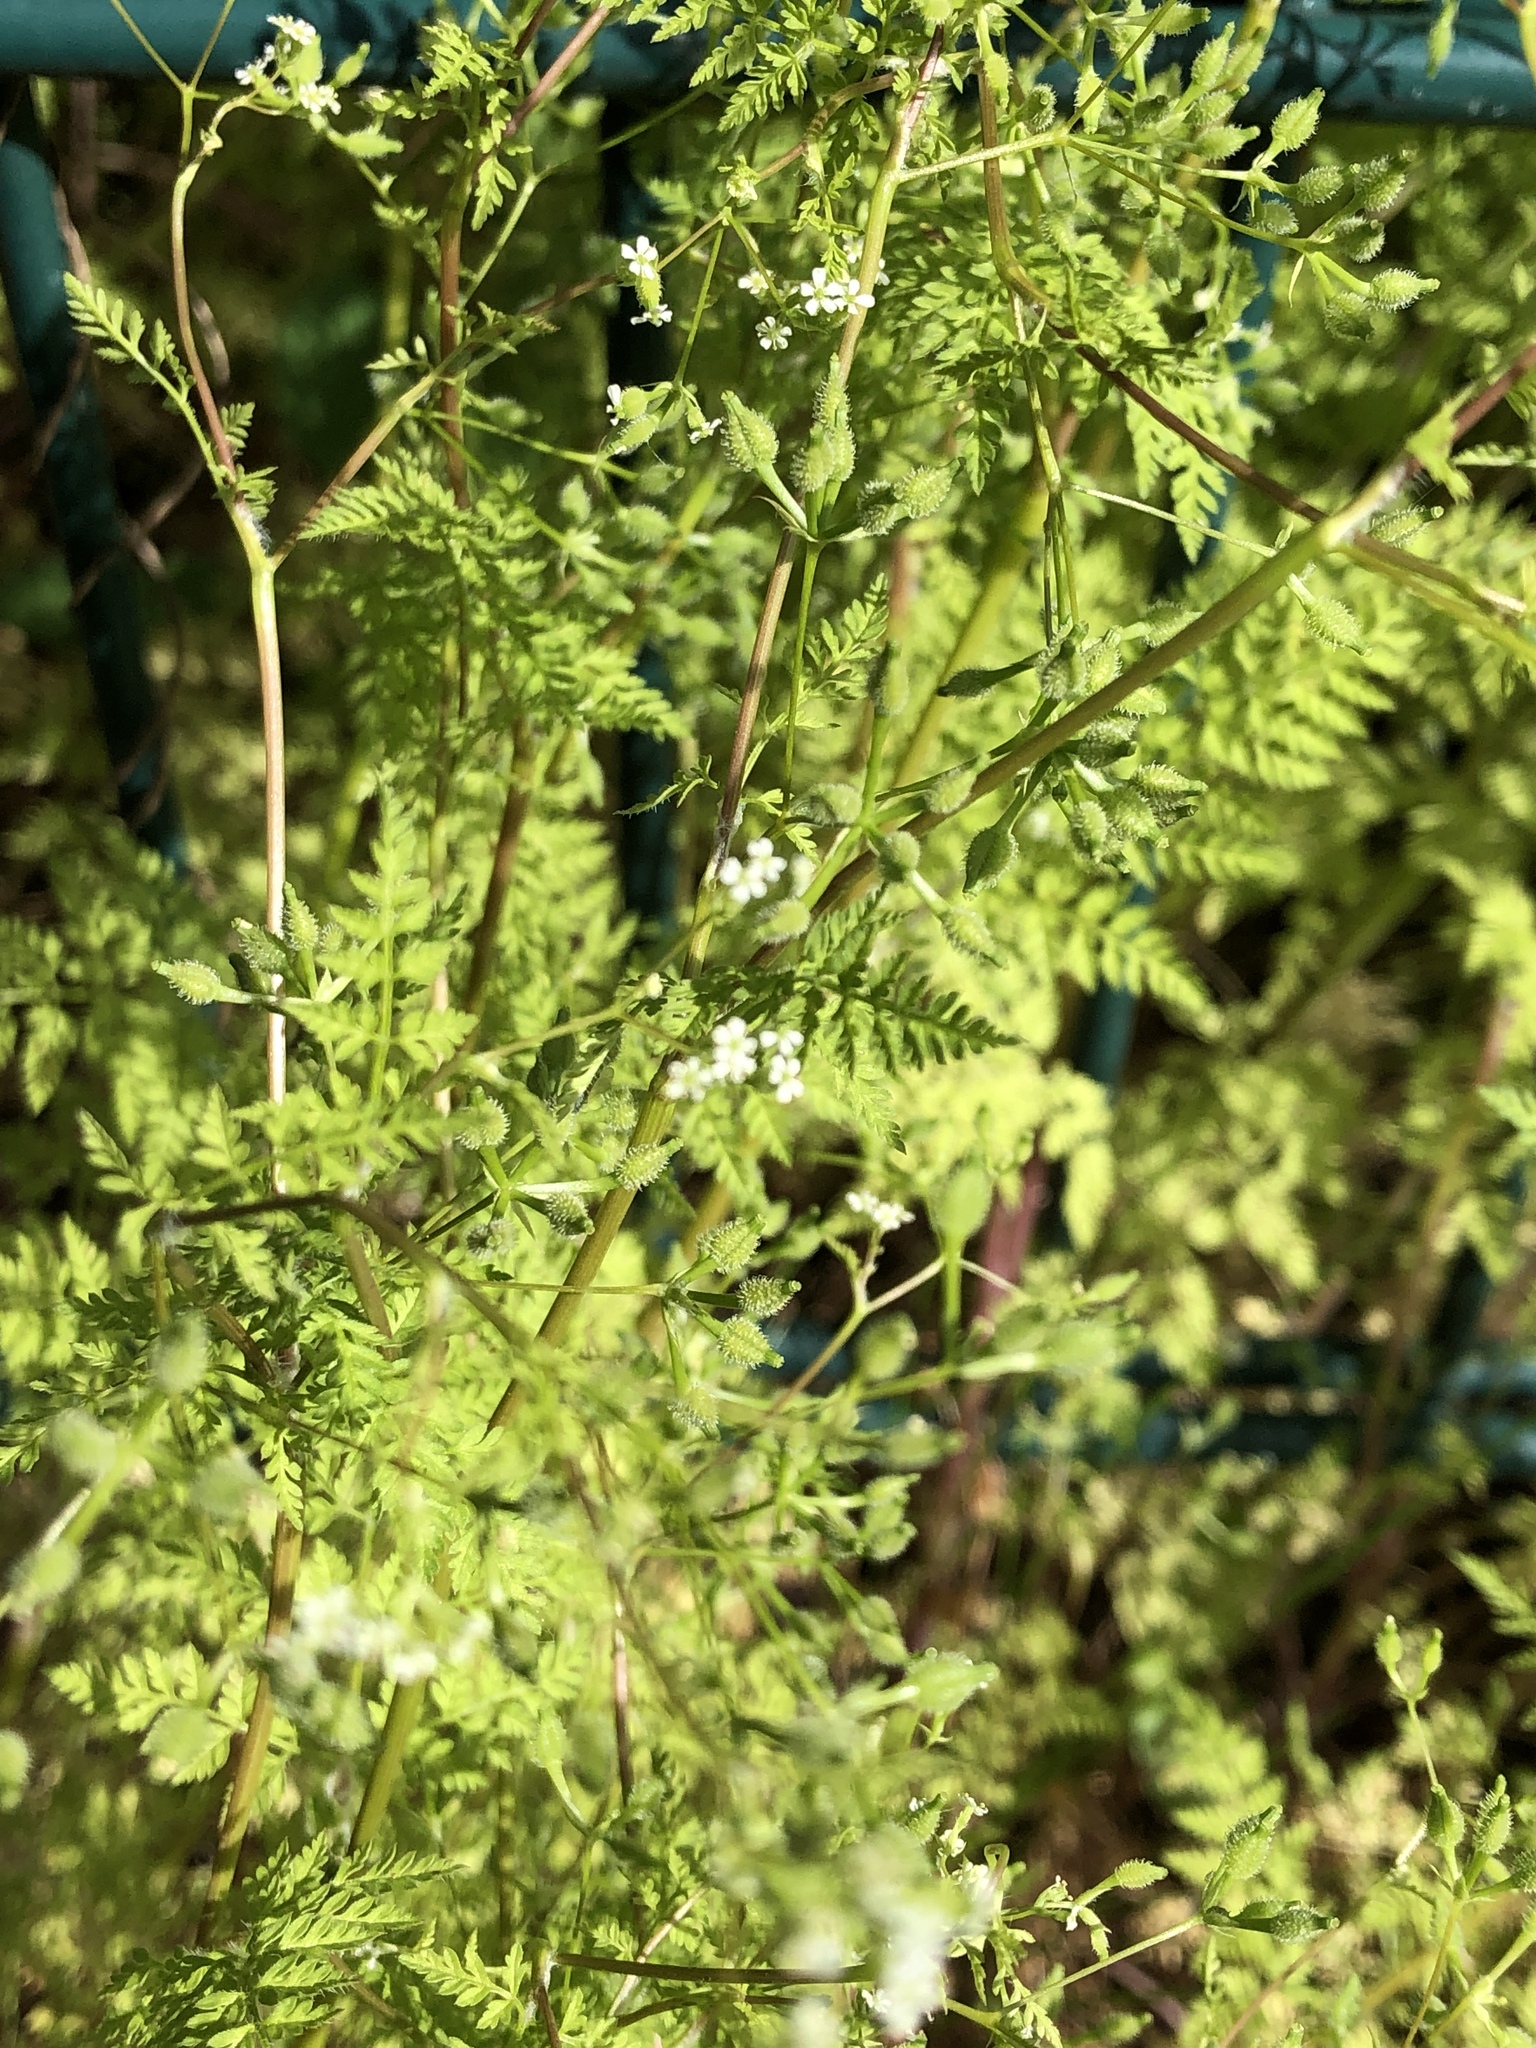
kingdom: Plantae
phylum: Tracheophyta
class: Magnoliopsida
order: Apiales
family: Apiaceae
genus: Anthriscus
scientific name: Anthriscus caucalis
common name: Bur chervil
